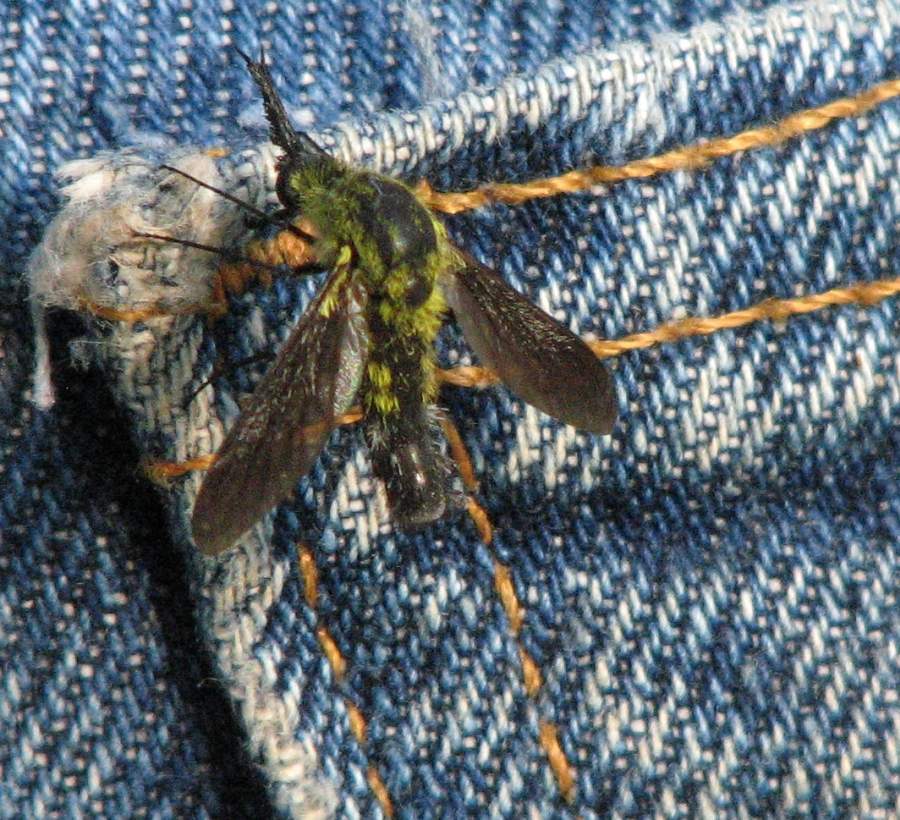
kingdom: Animalia
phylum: Arthropoda
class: Insecta
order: Diptera
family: Bombyliidae
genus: Lepidophora
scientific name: Lepidophora lutea
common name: Hunchback bee fly
